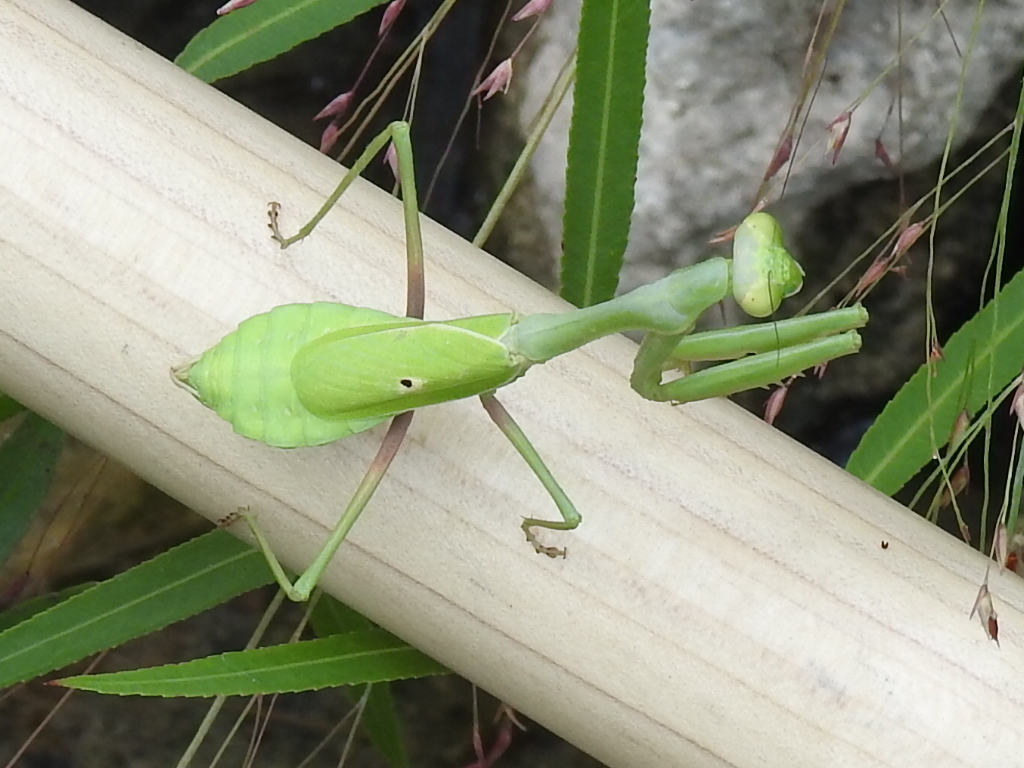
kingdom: Animalia
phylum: Arthropoda
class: Insecta
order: Mantodea
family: Mantidae
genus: Stagmomantis
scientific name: Stagmomantis carolina
